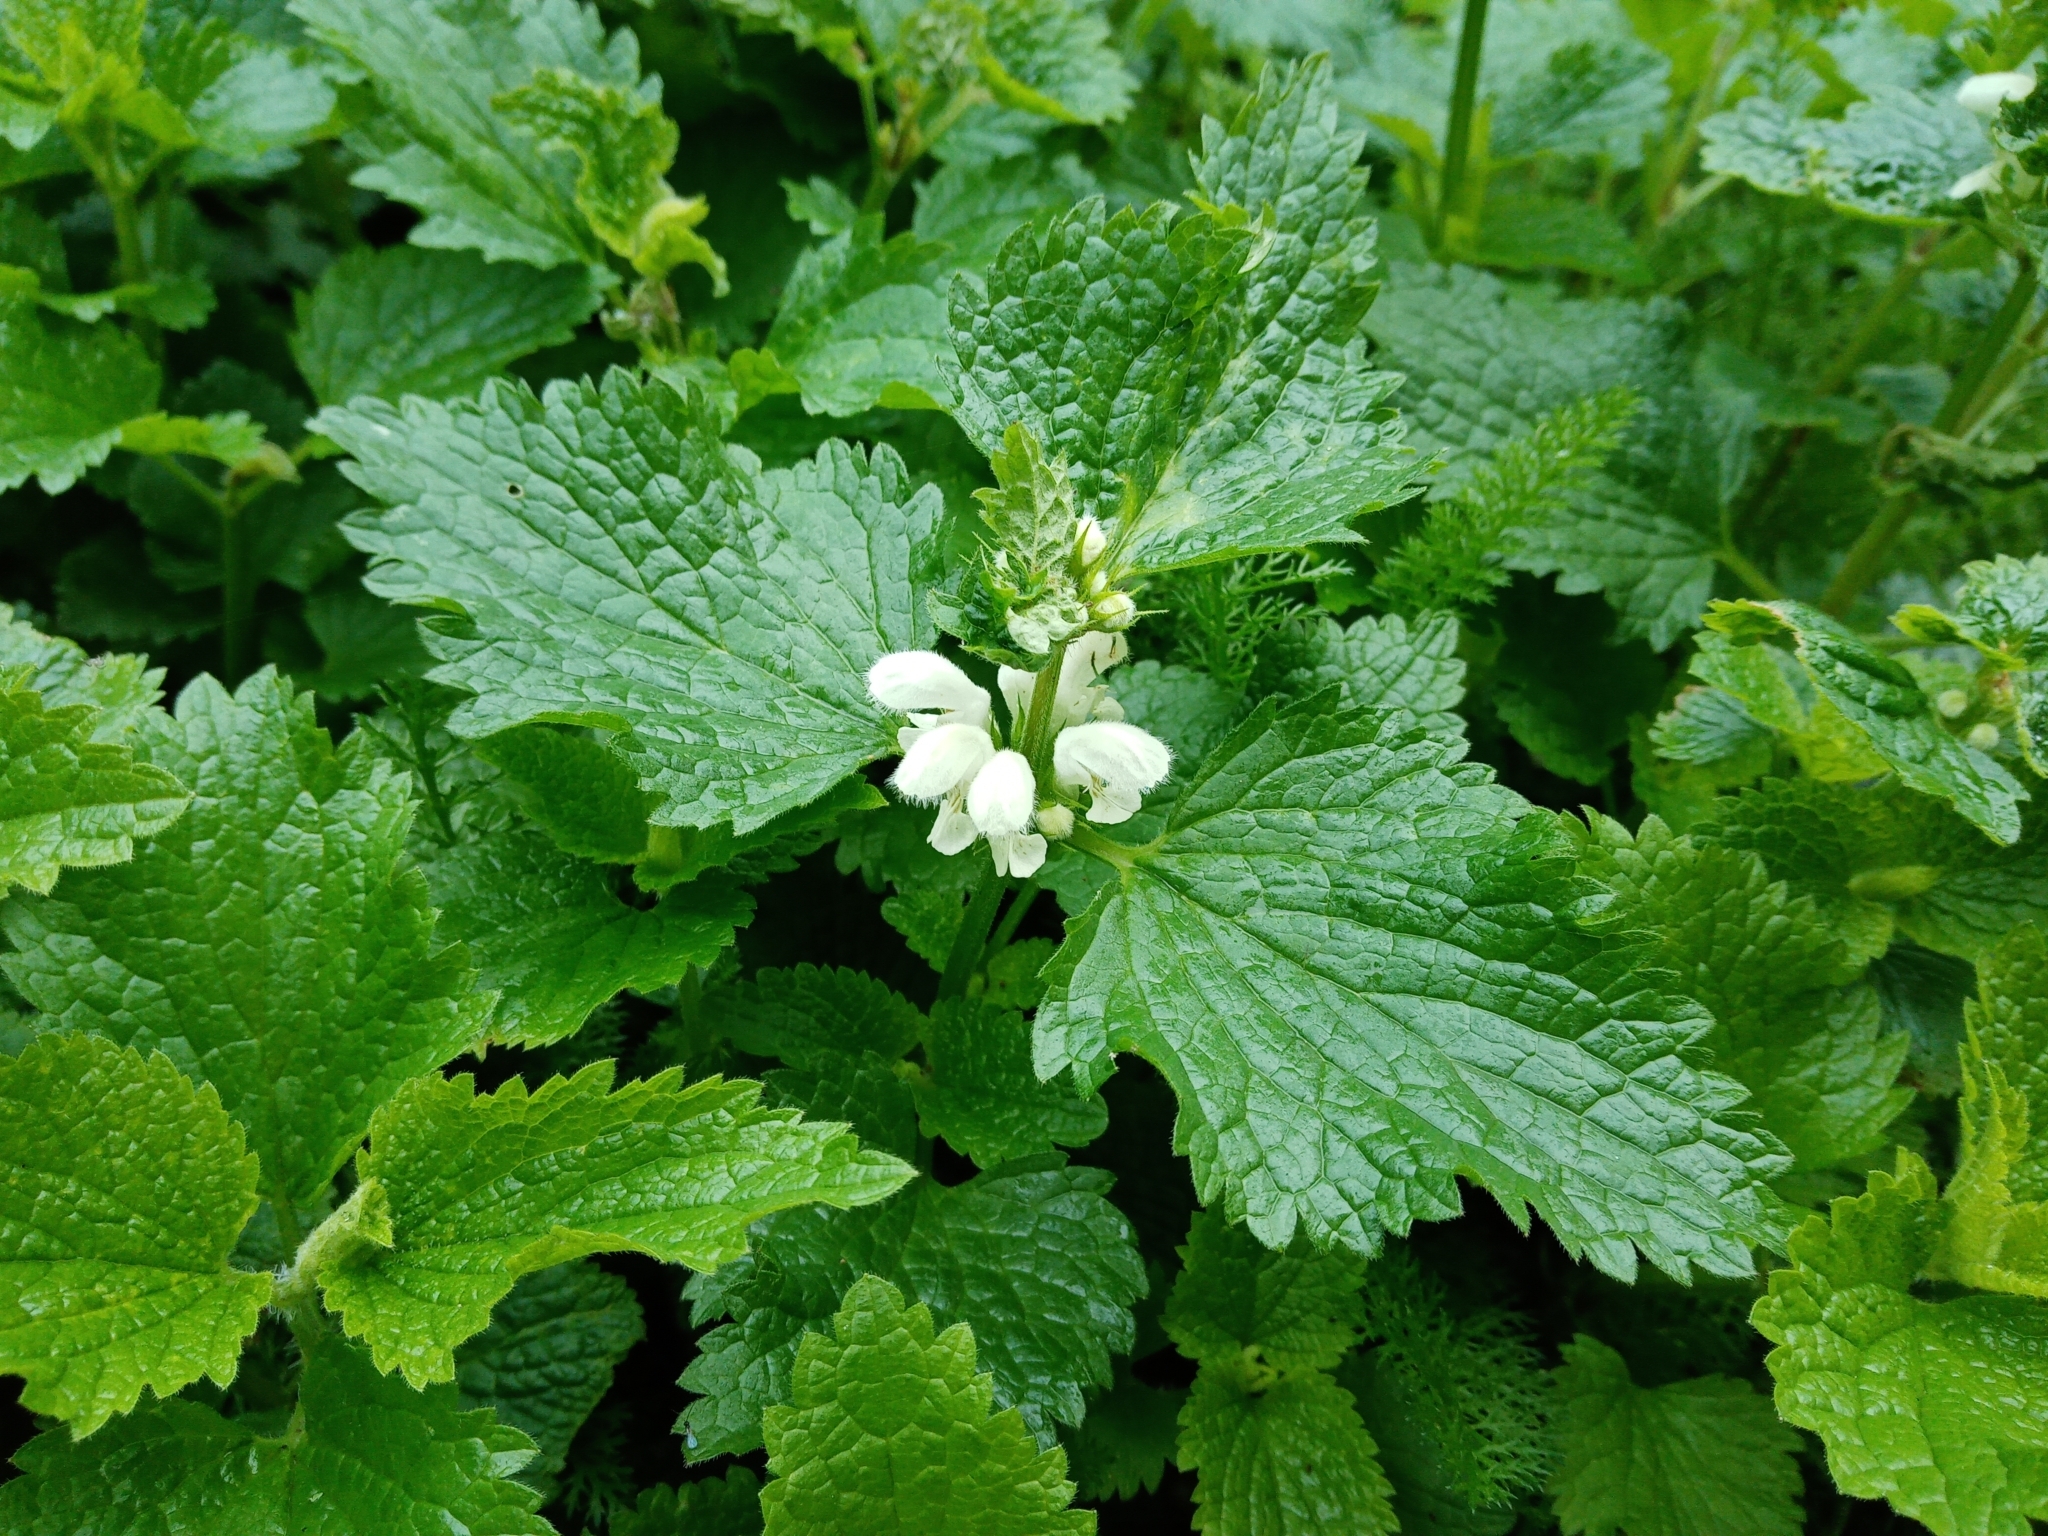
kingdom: Plantae
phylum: Tracheophyta
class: Magnoliopsida
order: Lamiales
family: Lamiaceae
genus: Lamium
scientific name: Lamium album
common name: White dead-nettle
